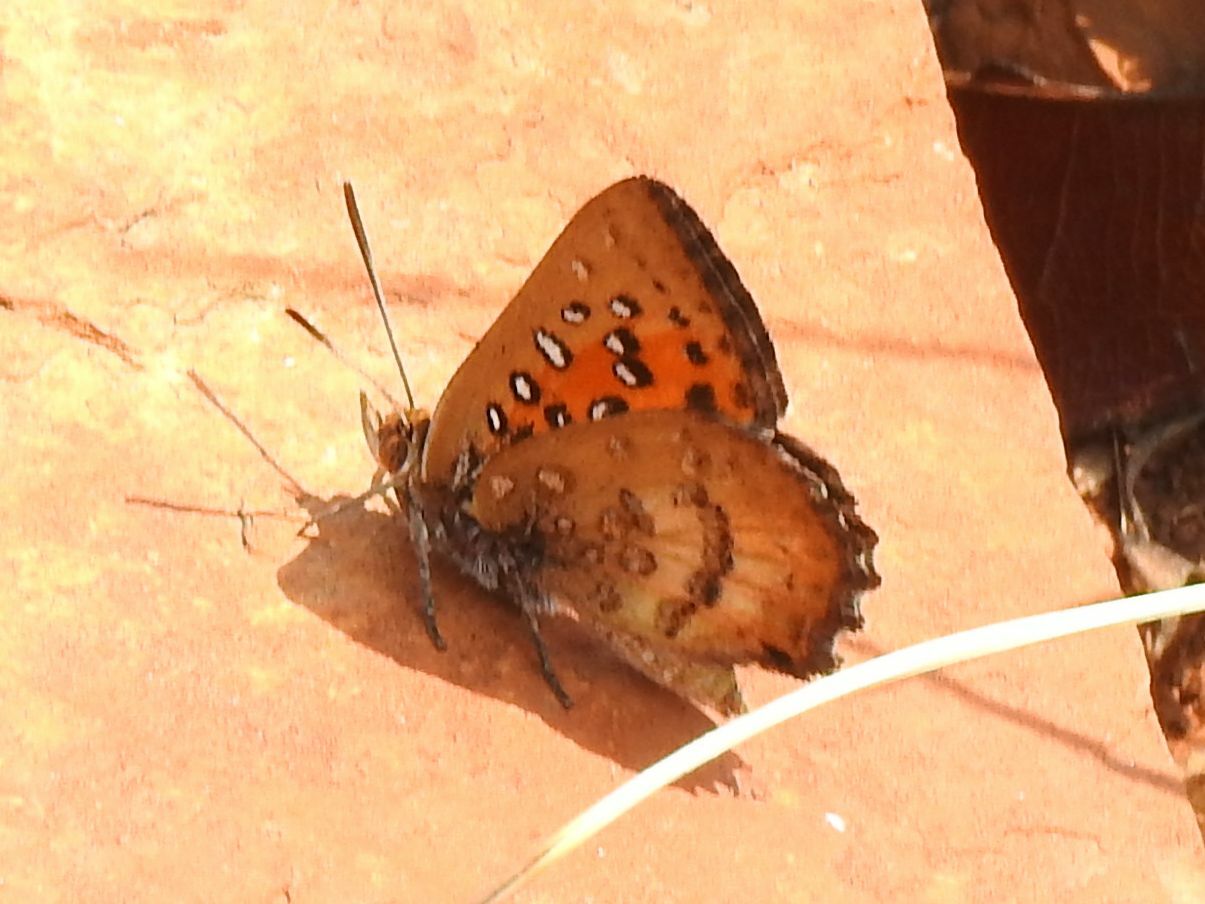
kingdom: Animalia
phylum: Arthropoda
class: Insecta
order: Lepidoptera
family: Lycaenidae
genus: Aloeides
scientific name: Aloeides swanepoeli
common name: Swanepoel's copper
